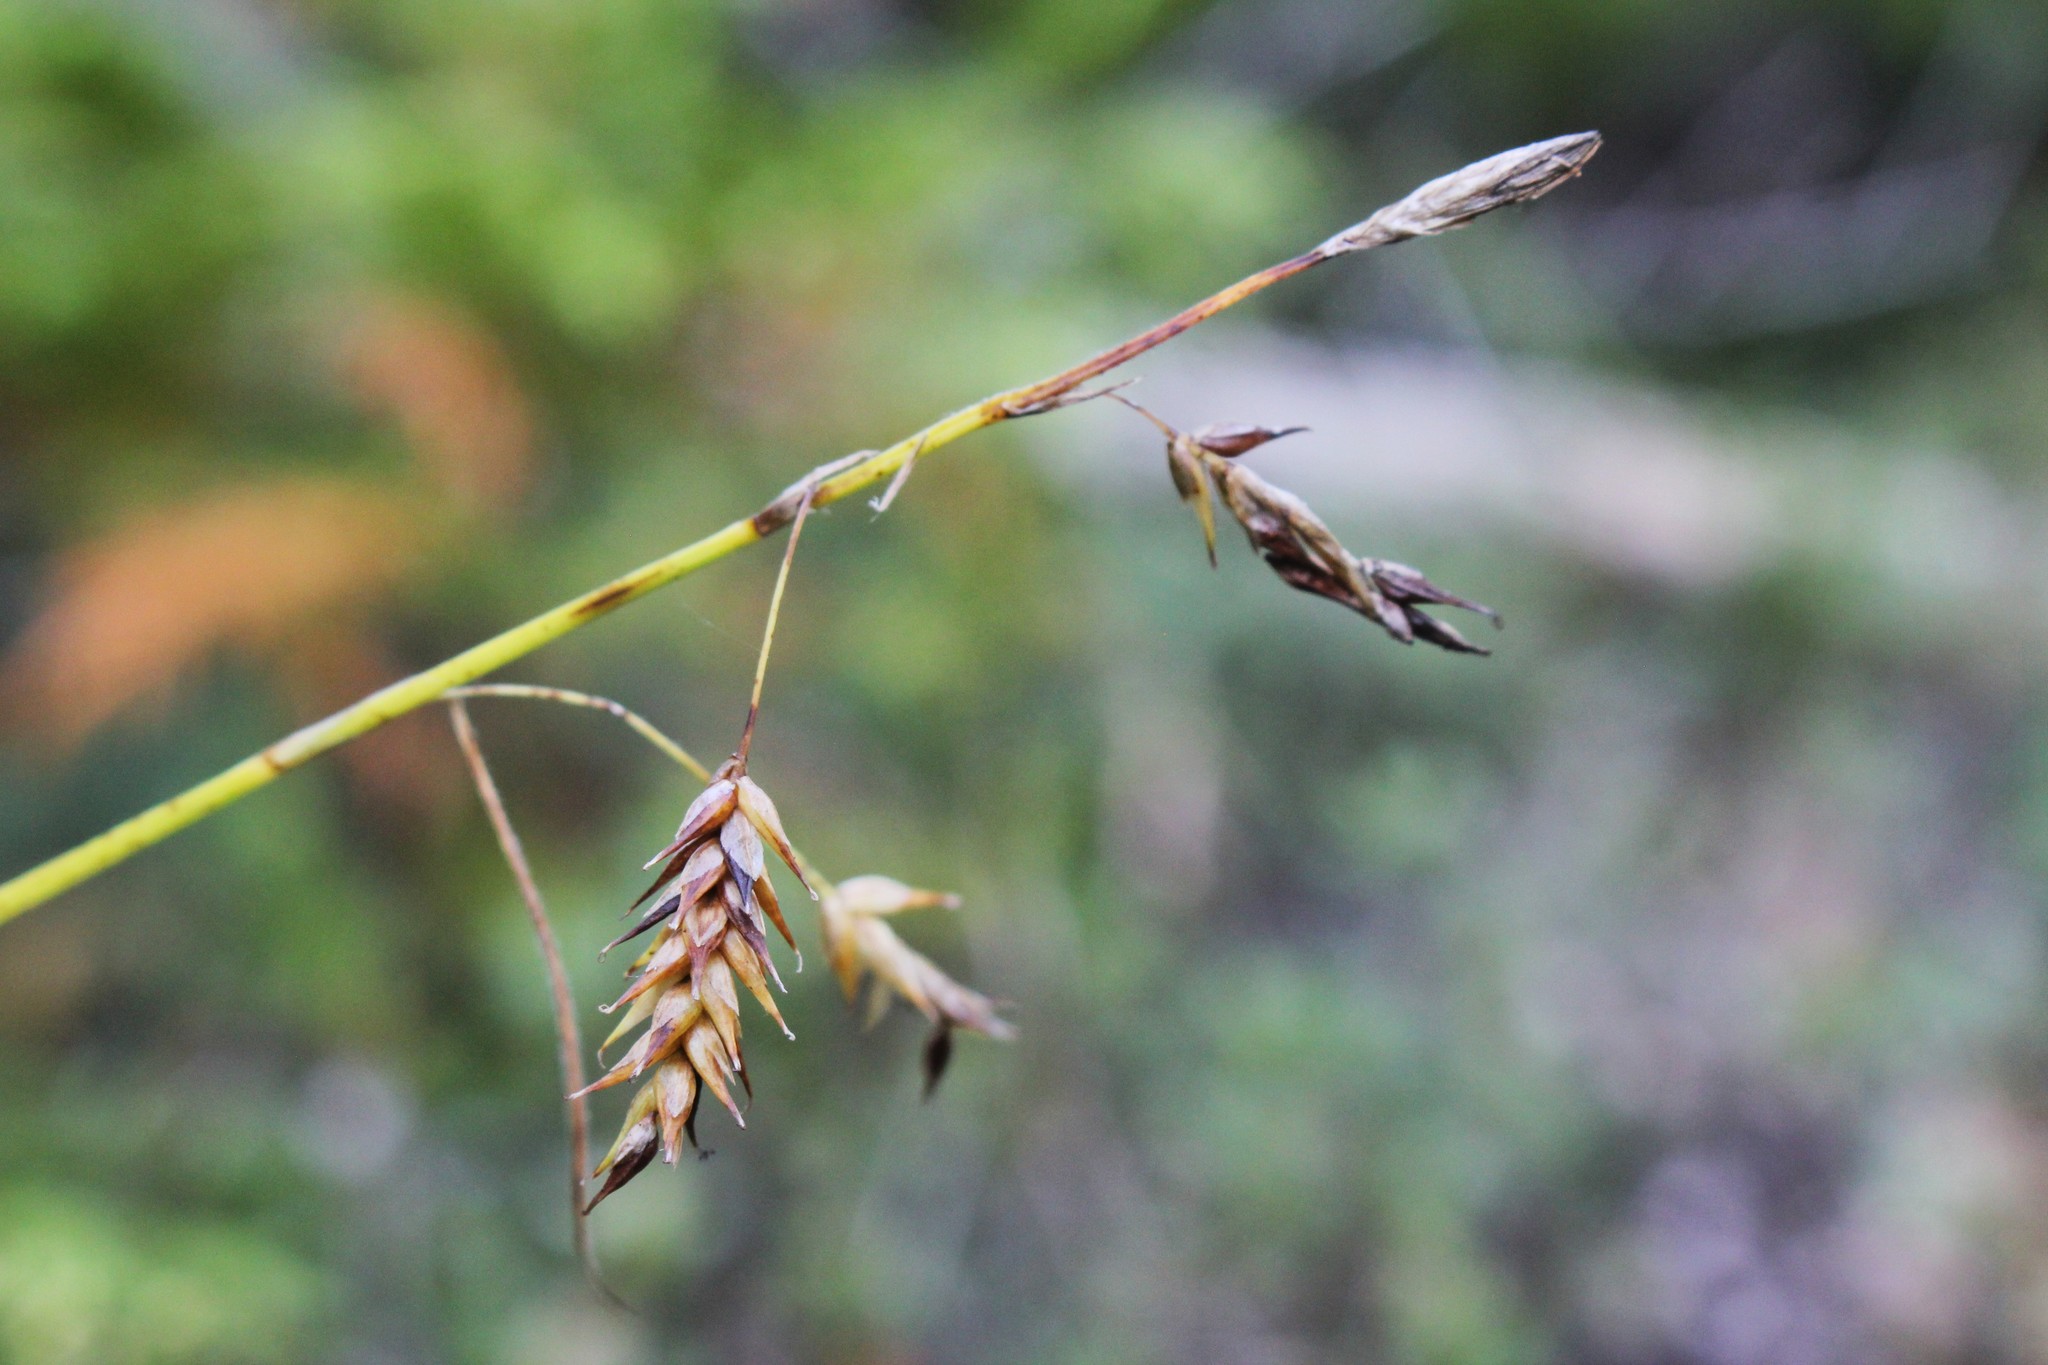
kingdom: Plantae
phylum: Tracheophyta
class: Liliopsida
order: Poales
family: Cyperaceae
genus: Carex
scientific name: Carex castanea
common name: Chestnut sedge
